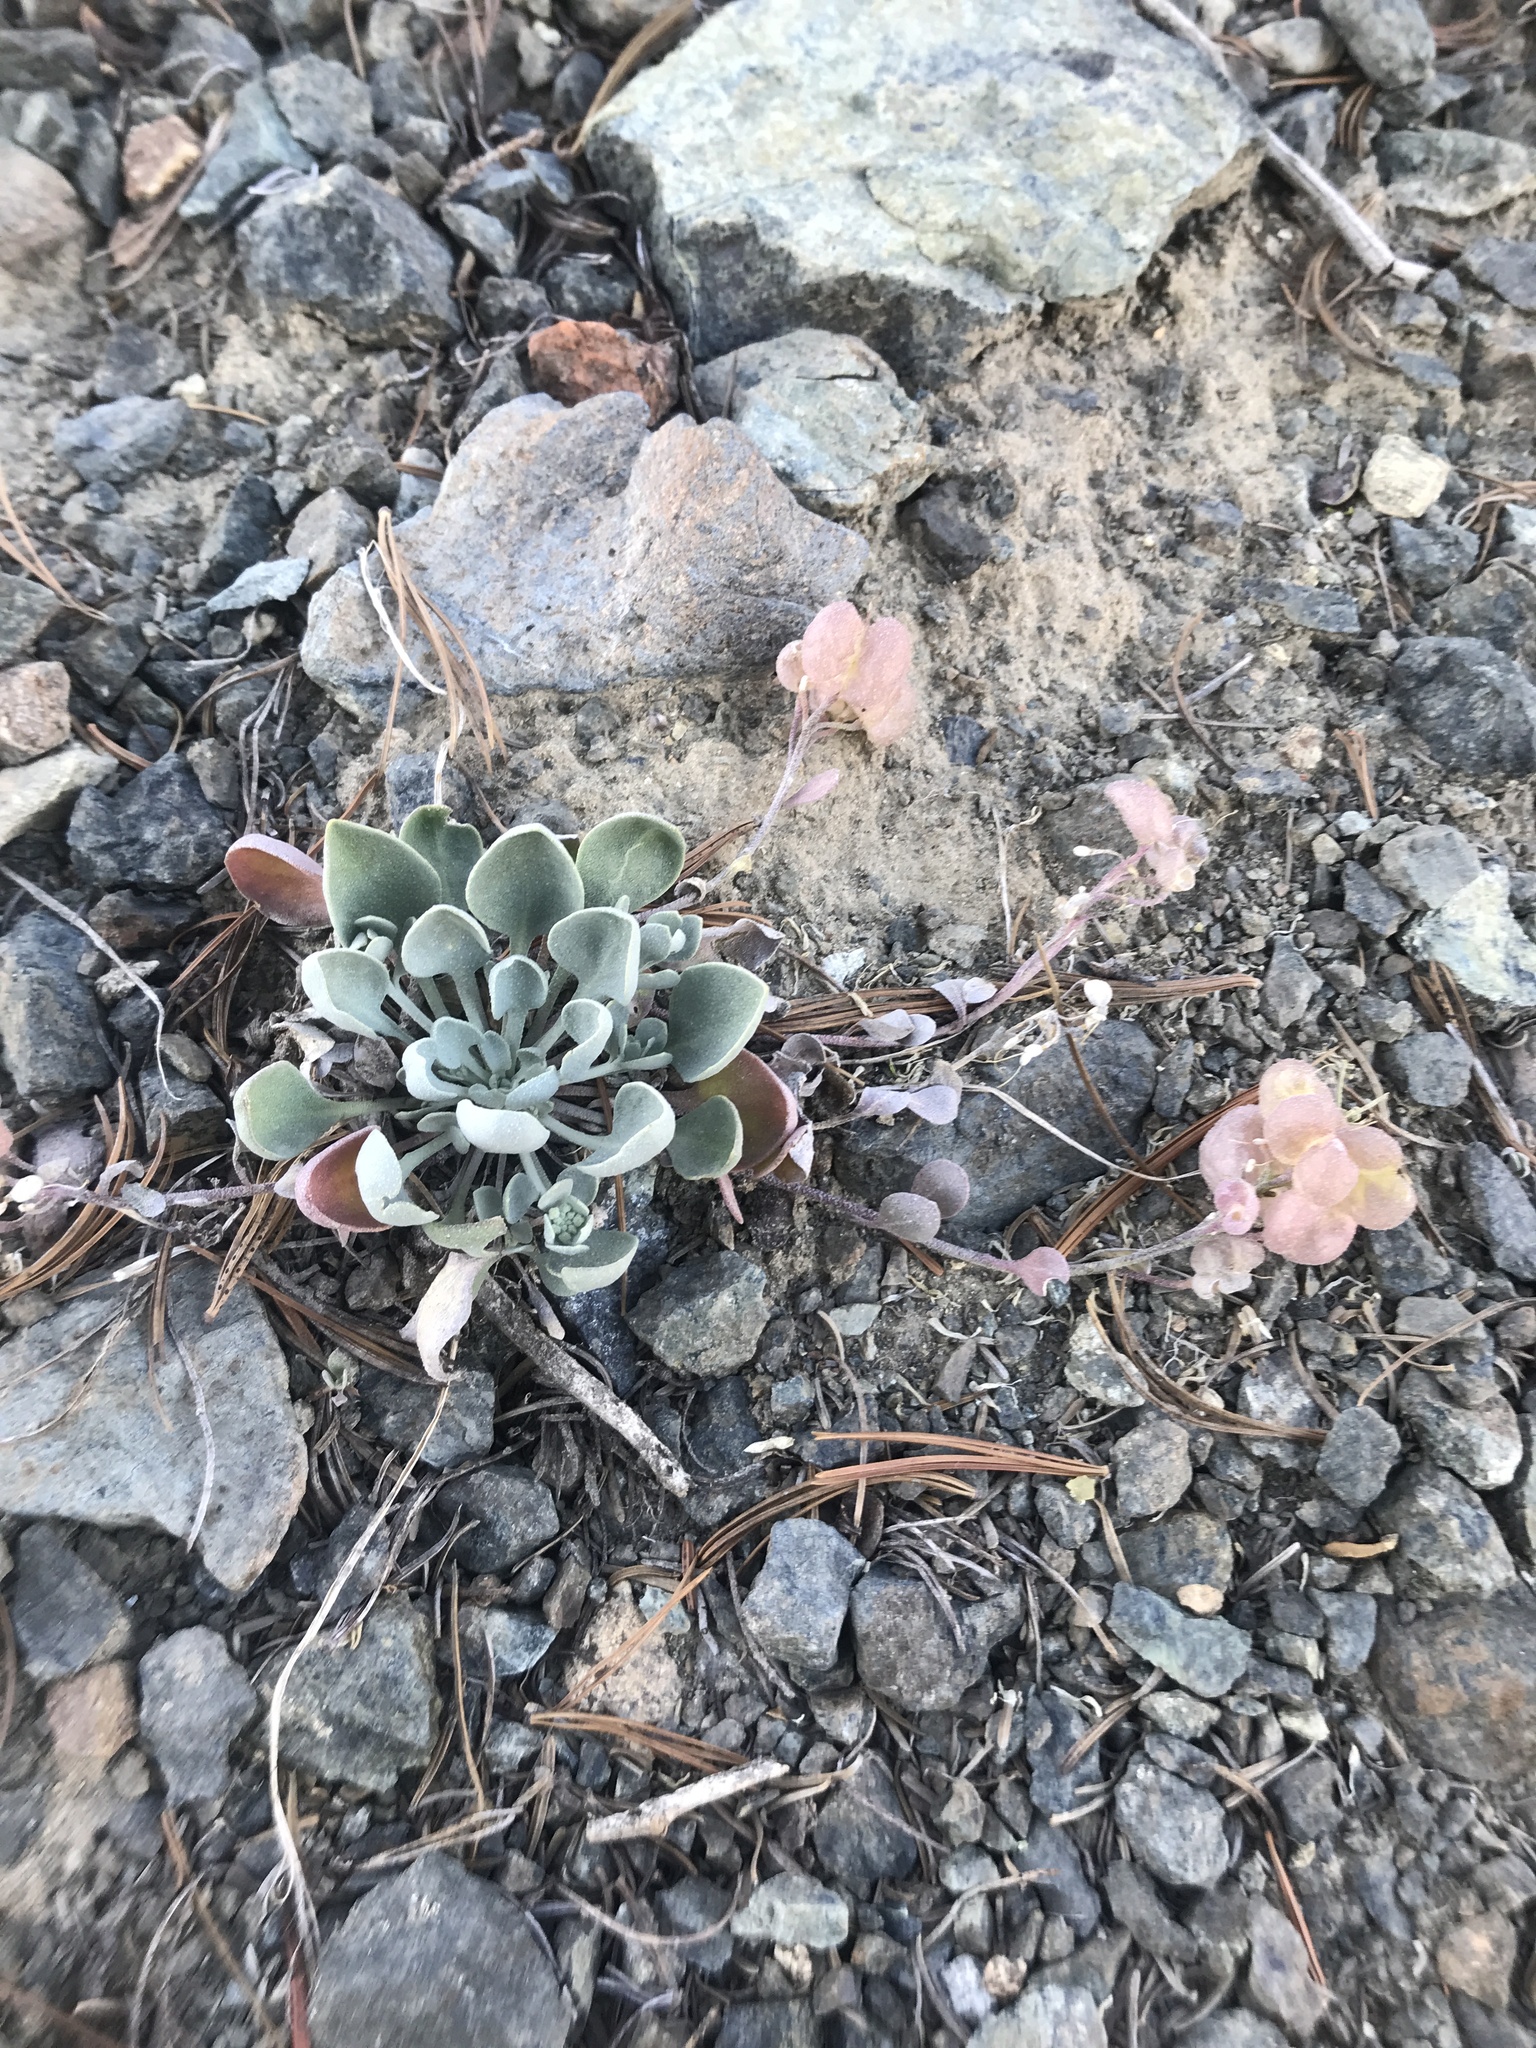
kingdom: Plantae
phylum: Tracheophyta
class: Magnoliopsida
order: Brassicales
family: Brassicaceae
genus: Physaria
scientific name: Physaria alpestris
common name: Washington twinpod
